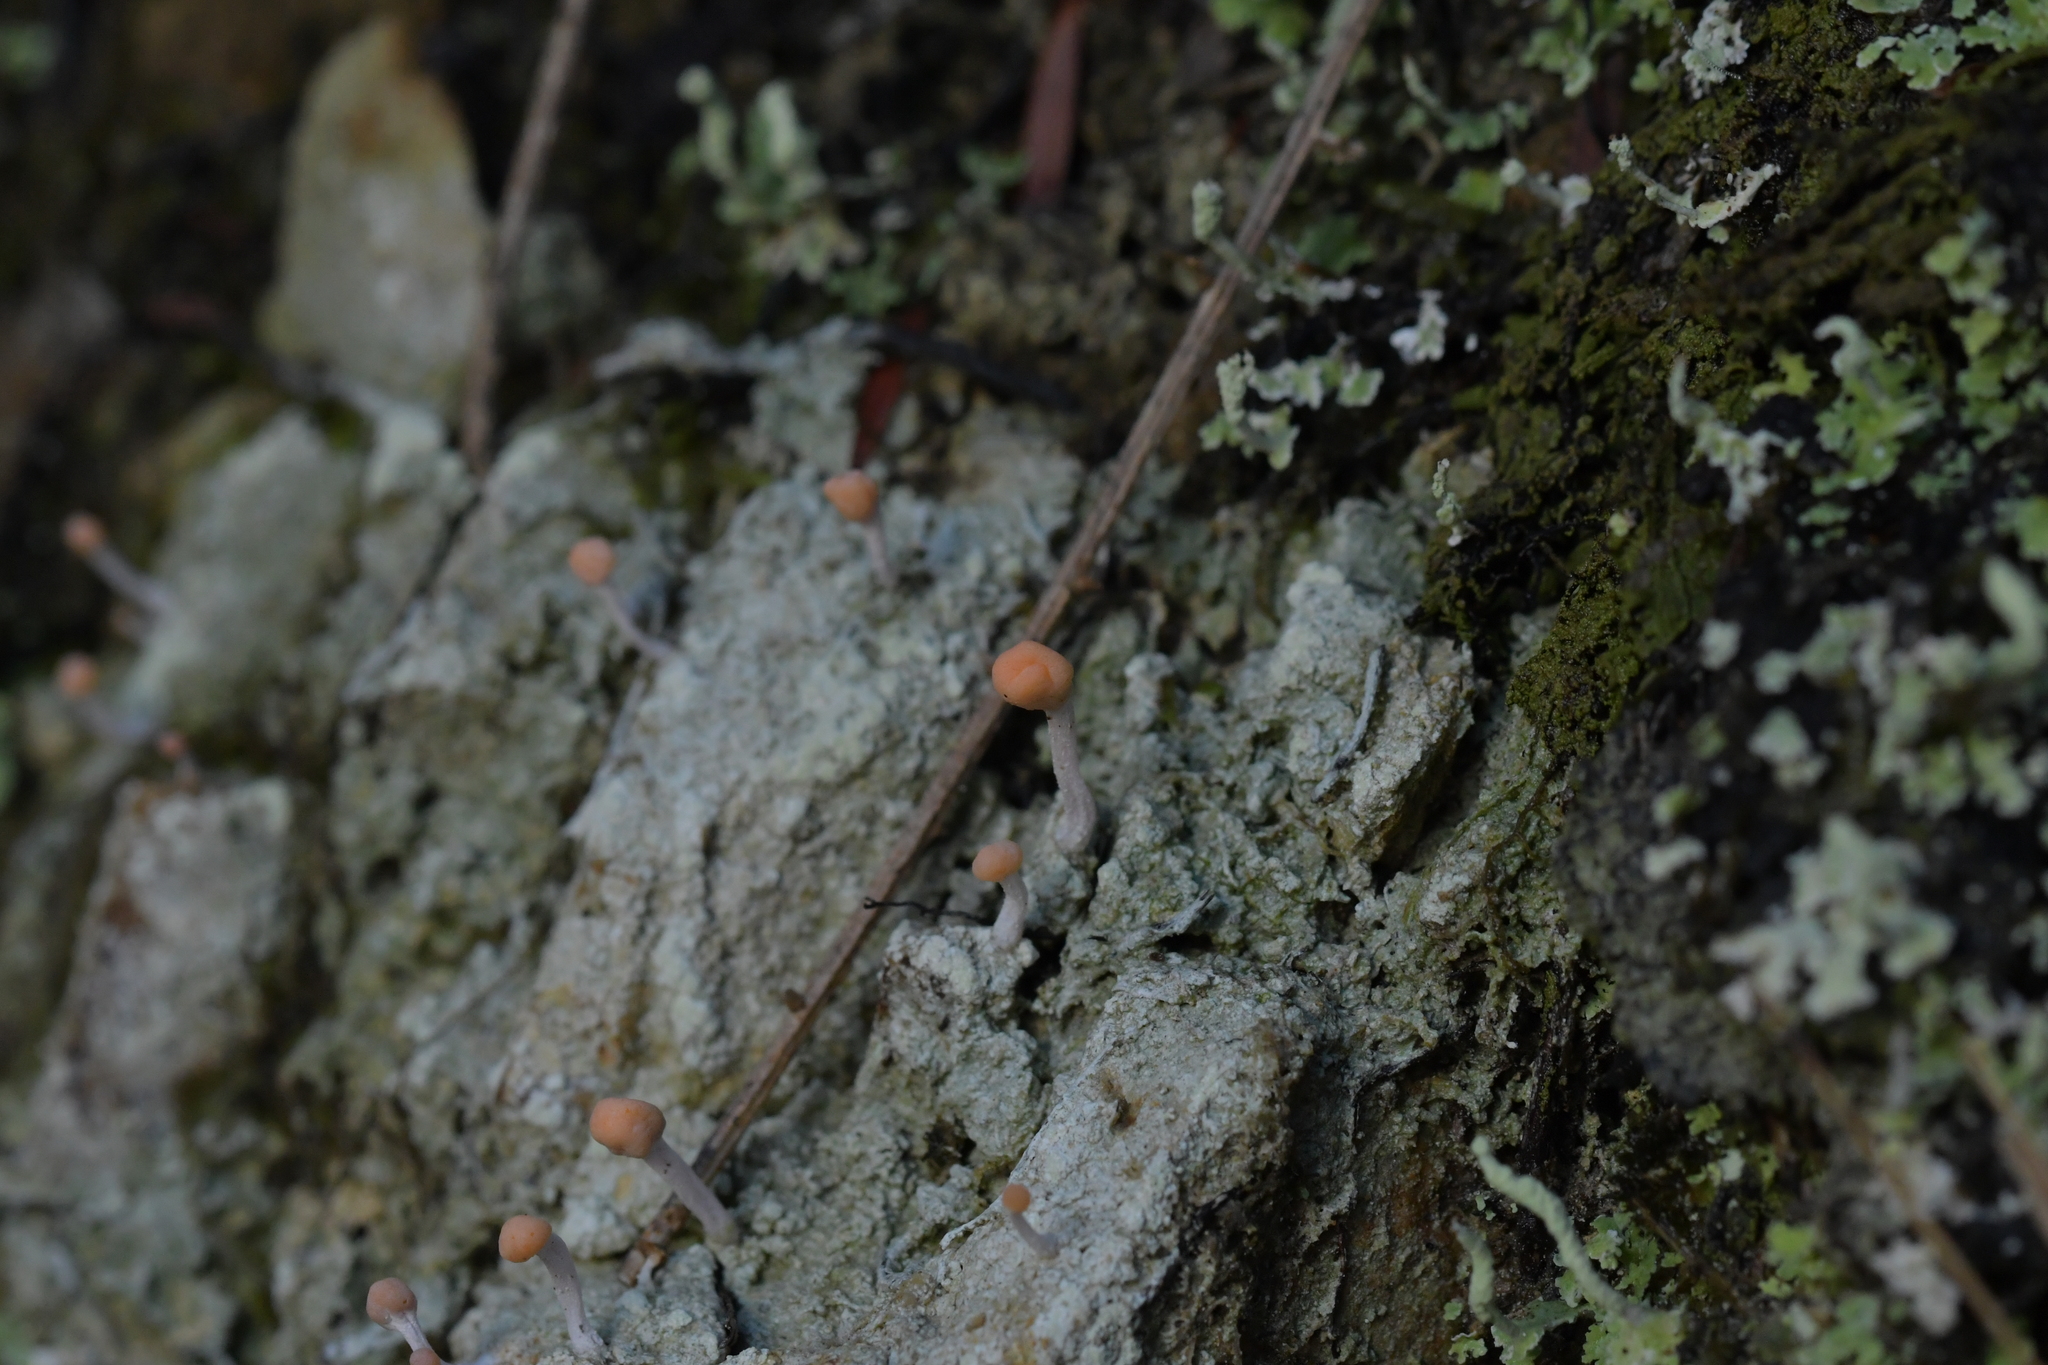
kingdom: Fungi
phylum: Ascomycota
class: Lecanoromycetes
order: Pertusariales
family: Icmadophilaceae
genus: Dibaeis
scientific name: Dibaeis arcuata
